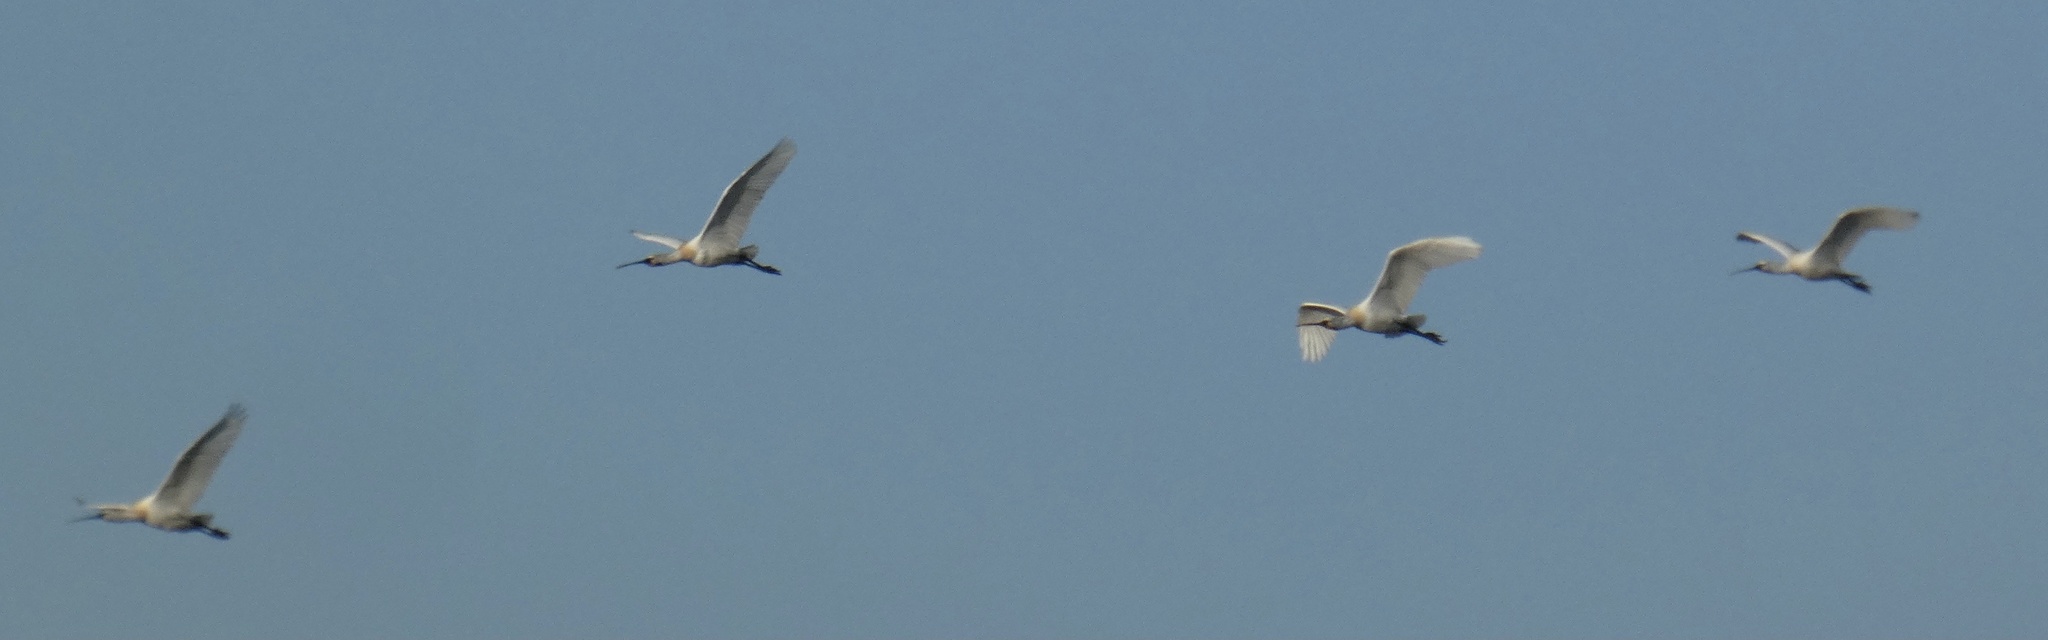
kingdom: Animalia
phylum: Chordata
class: Aves
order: Pelecaniformes
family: Threskiornithidae
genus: Platalea
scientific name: Platalea leucorodia
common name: Eurasian spoonbill
